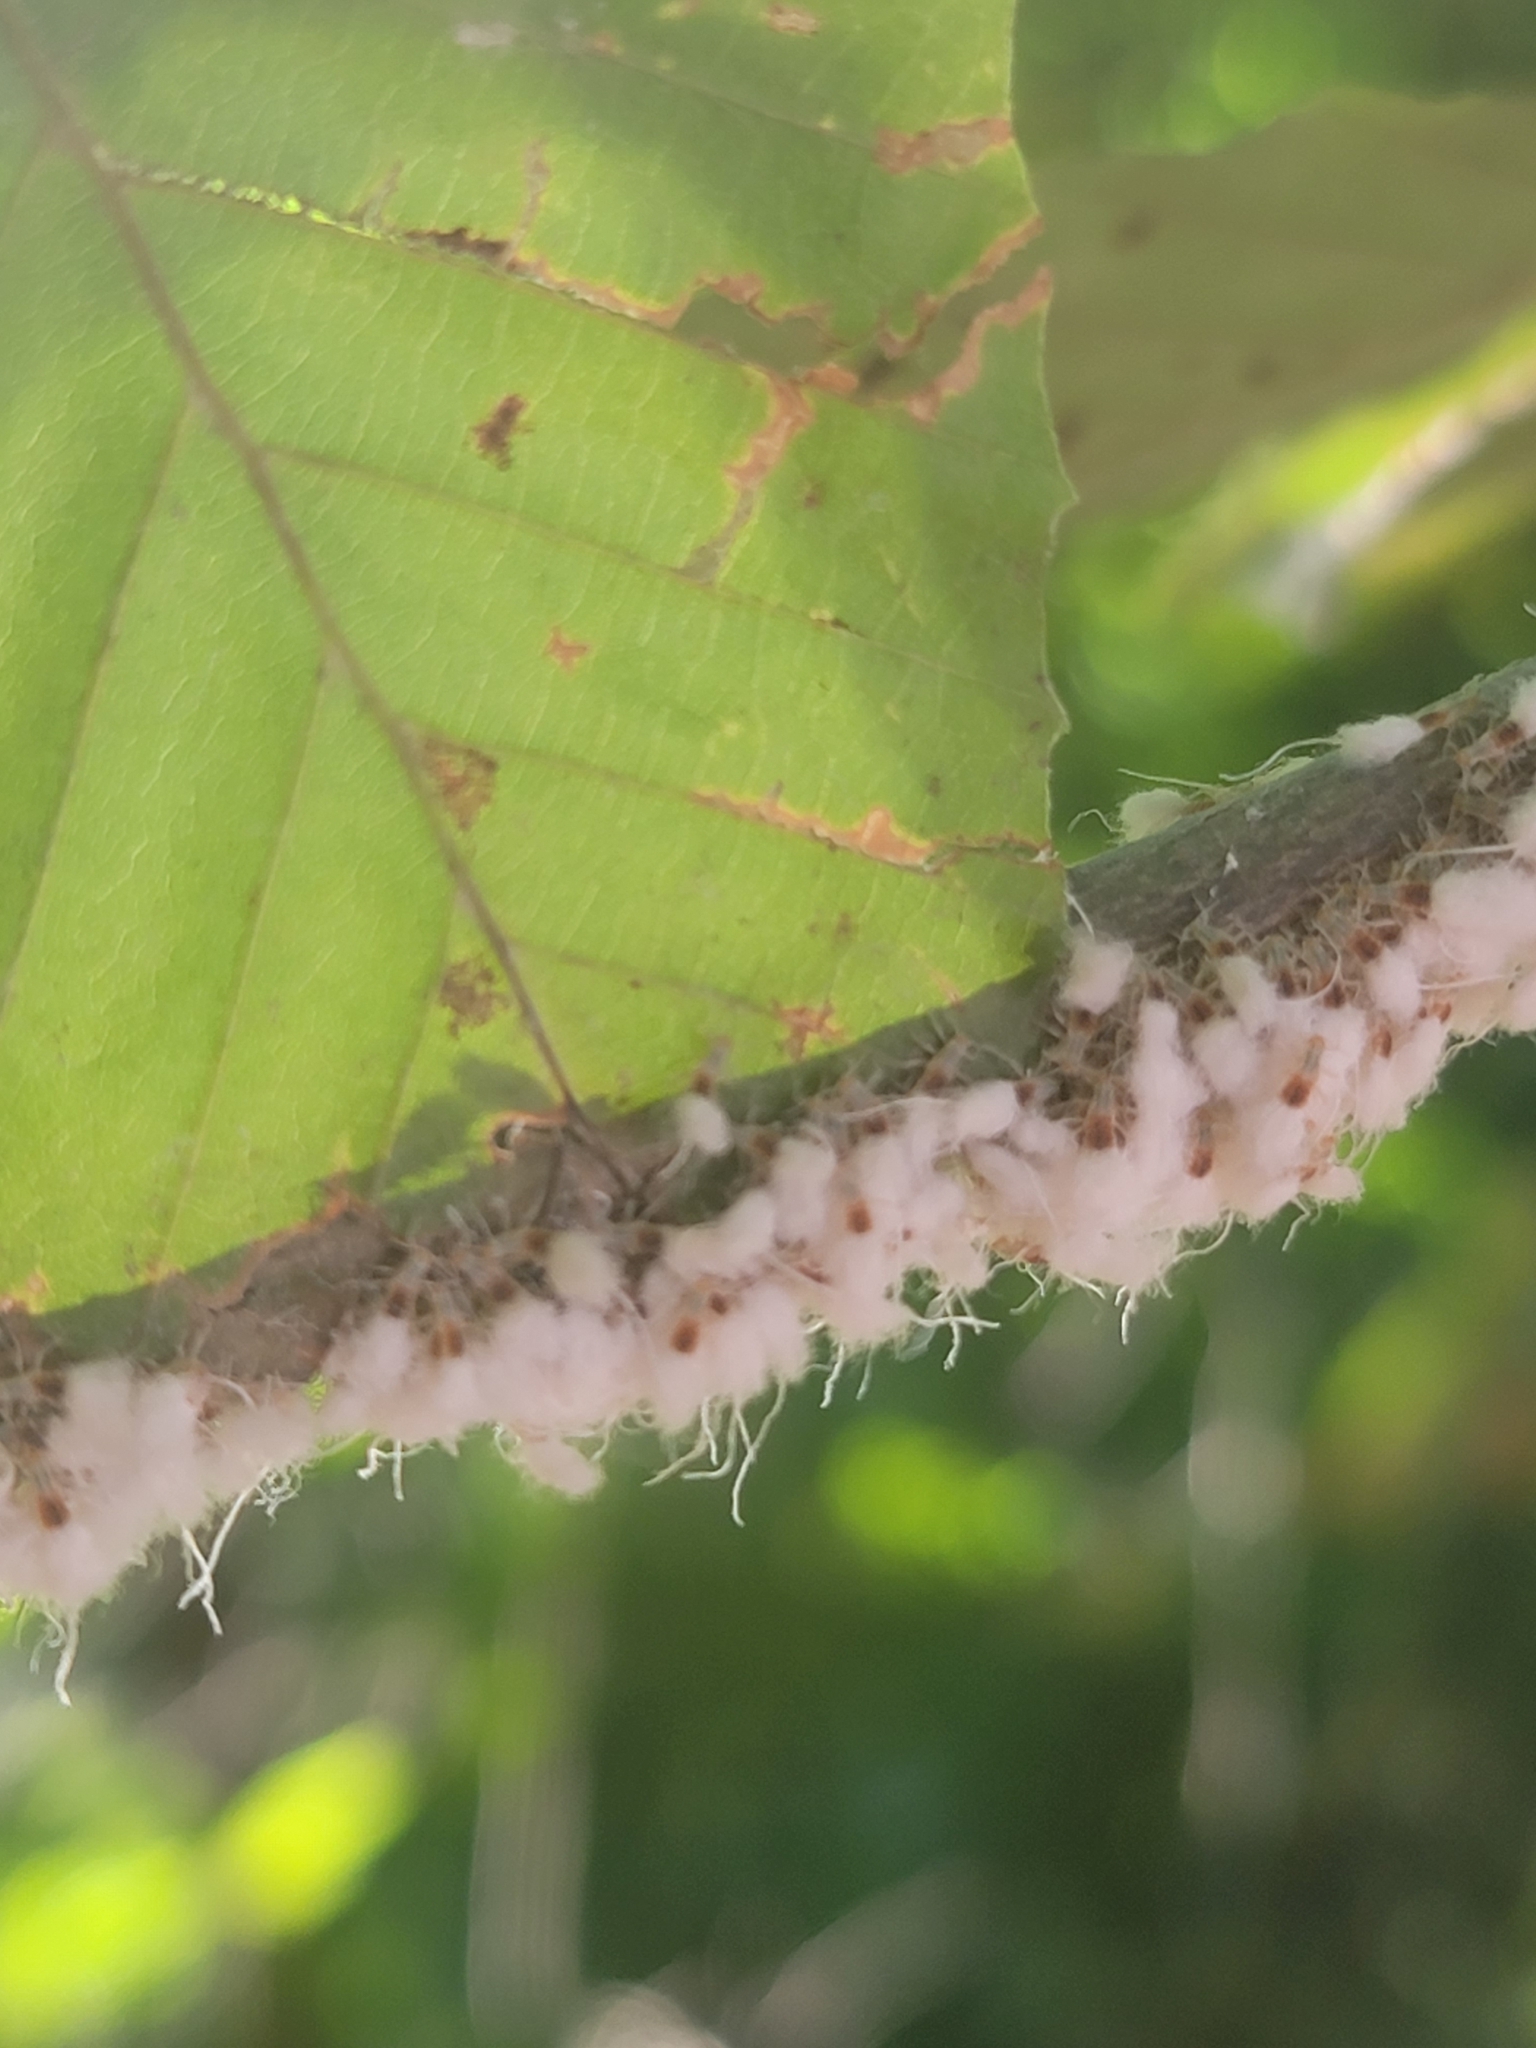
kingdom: Animalia
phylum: Arthropoda
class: Insecta
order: Hemiptera
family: Aphididae
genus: Grylloprociphilus
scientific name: Grylloprociphilus imbricator
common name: Beech blight aphid
